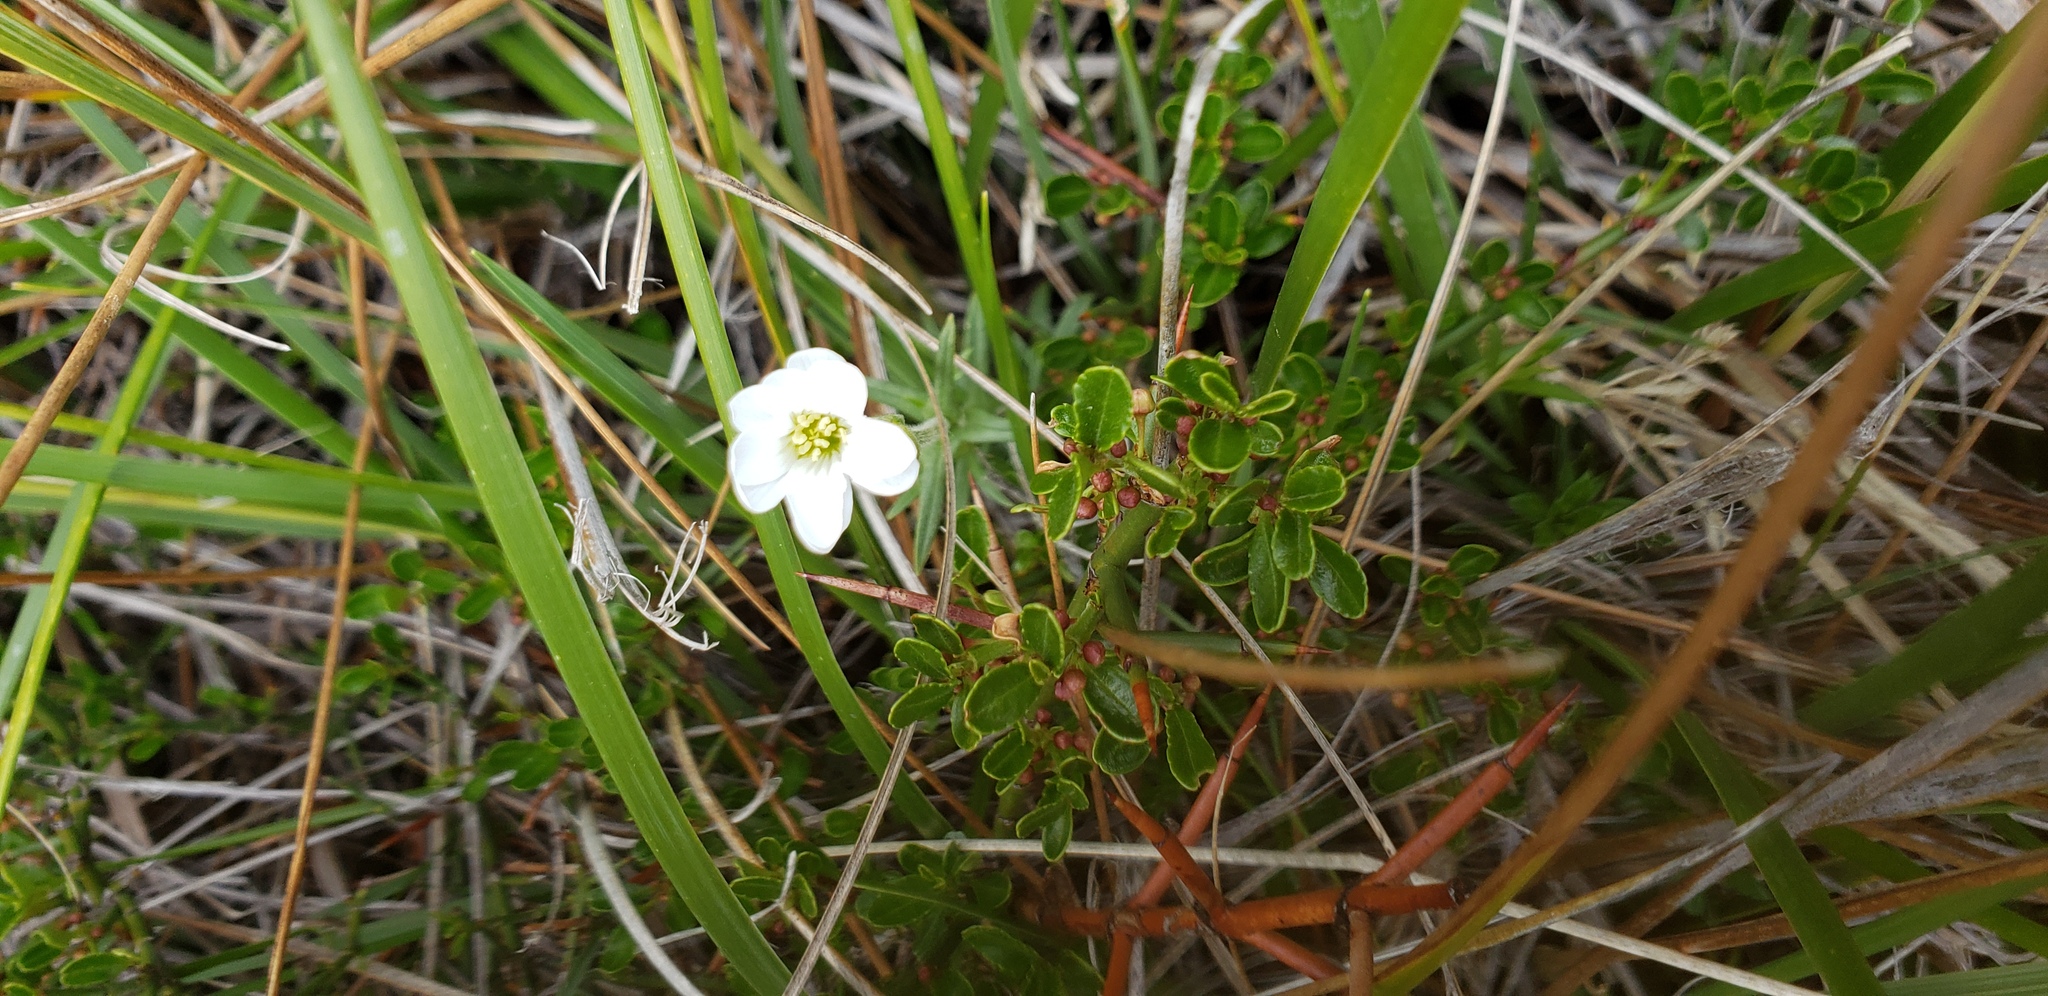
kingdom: Plantae
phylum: Tracheophyta
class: Magnoliopsida
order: Caryophyllales
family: Caryophyllaceae
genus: Cerastium
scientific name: Cerastium arvense
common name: Field mouse-ear
